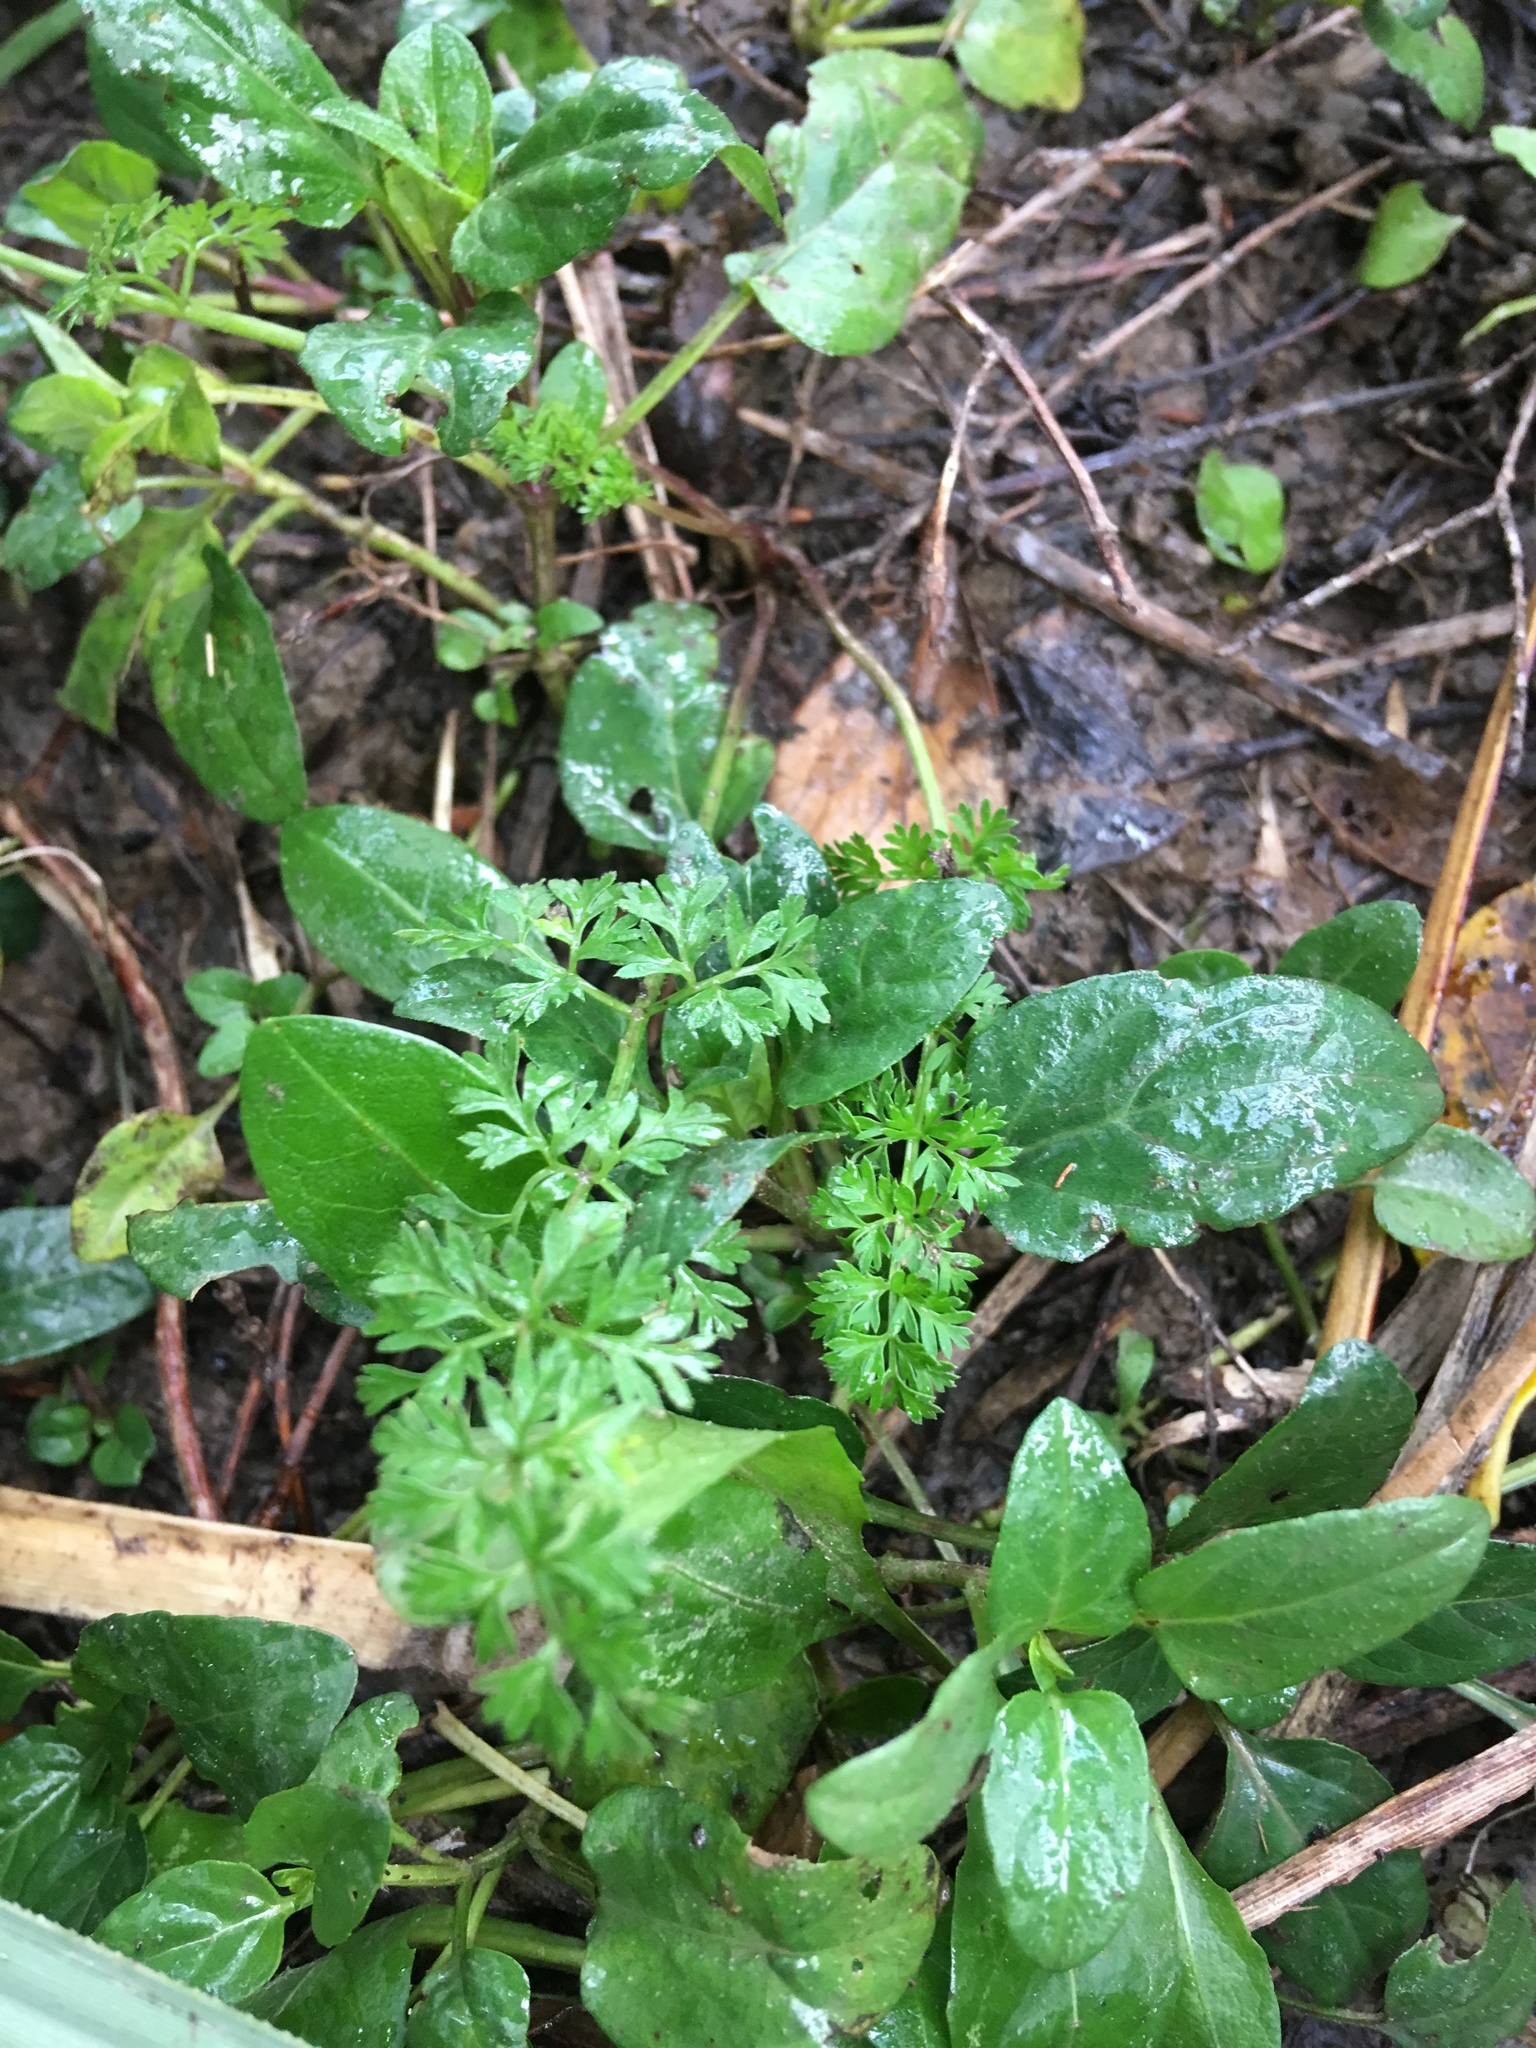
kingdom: Plantae
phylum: Tracheophyta
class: Magnoliopsida
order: Lamiales
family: Lamiaceae
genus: Prunella
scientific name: Prunella vulgaris
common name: Heal-all
